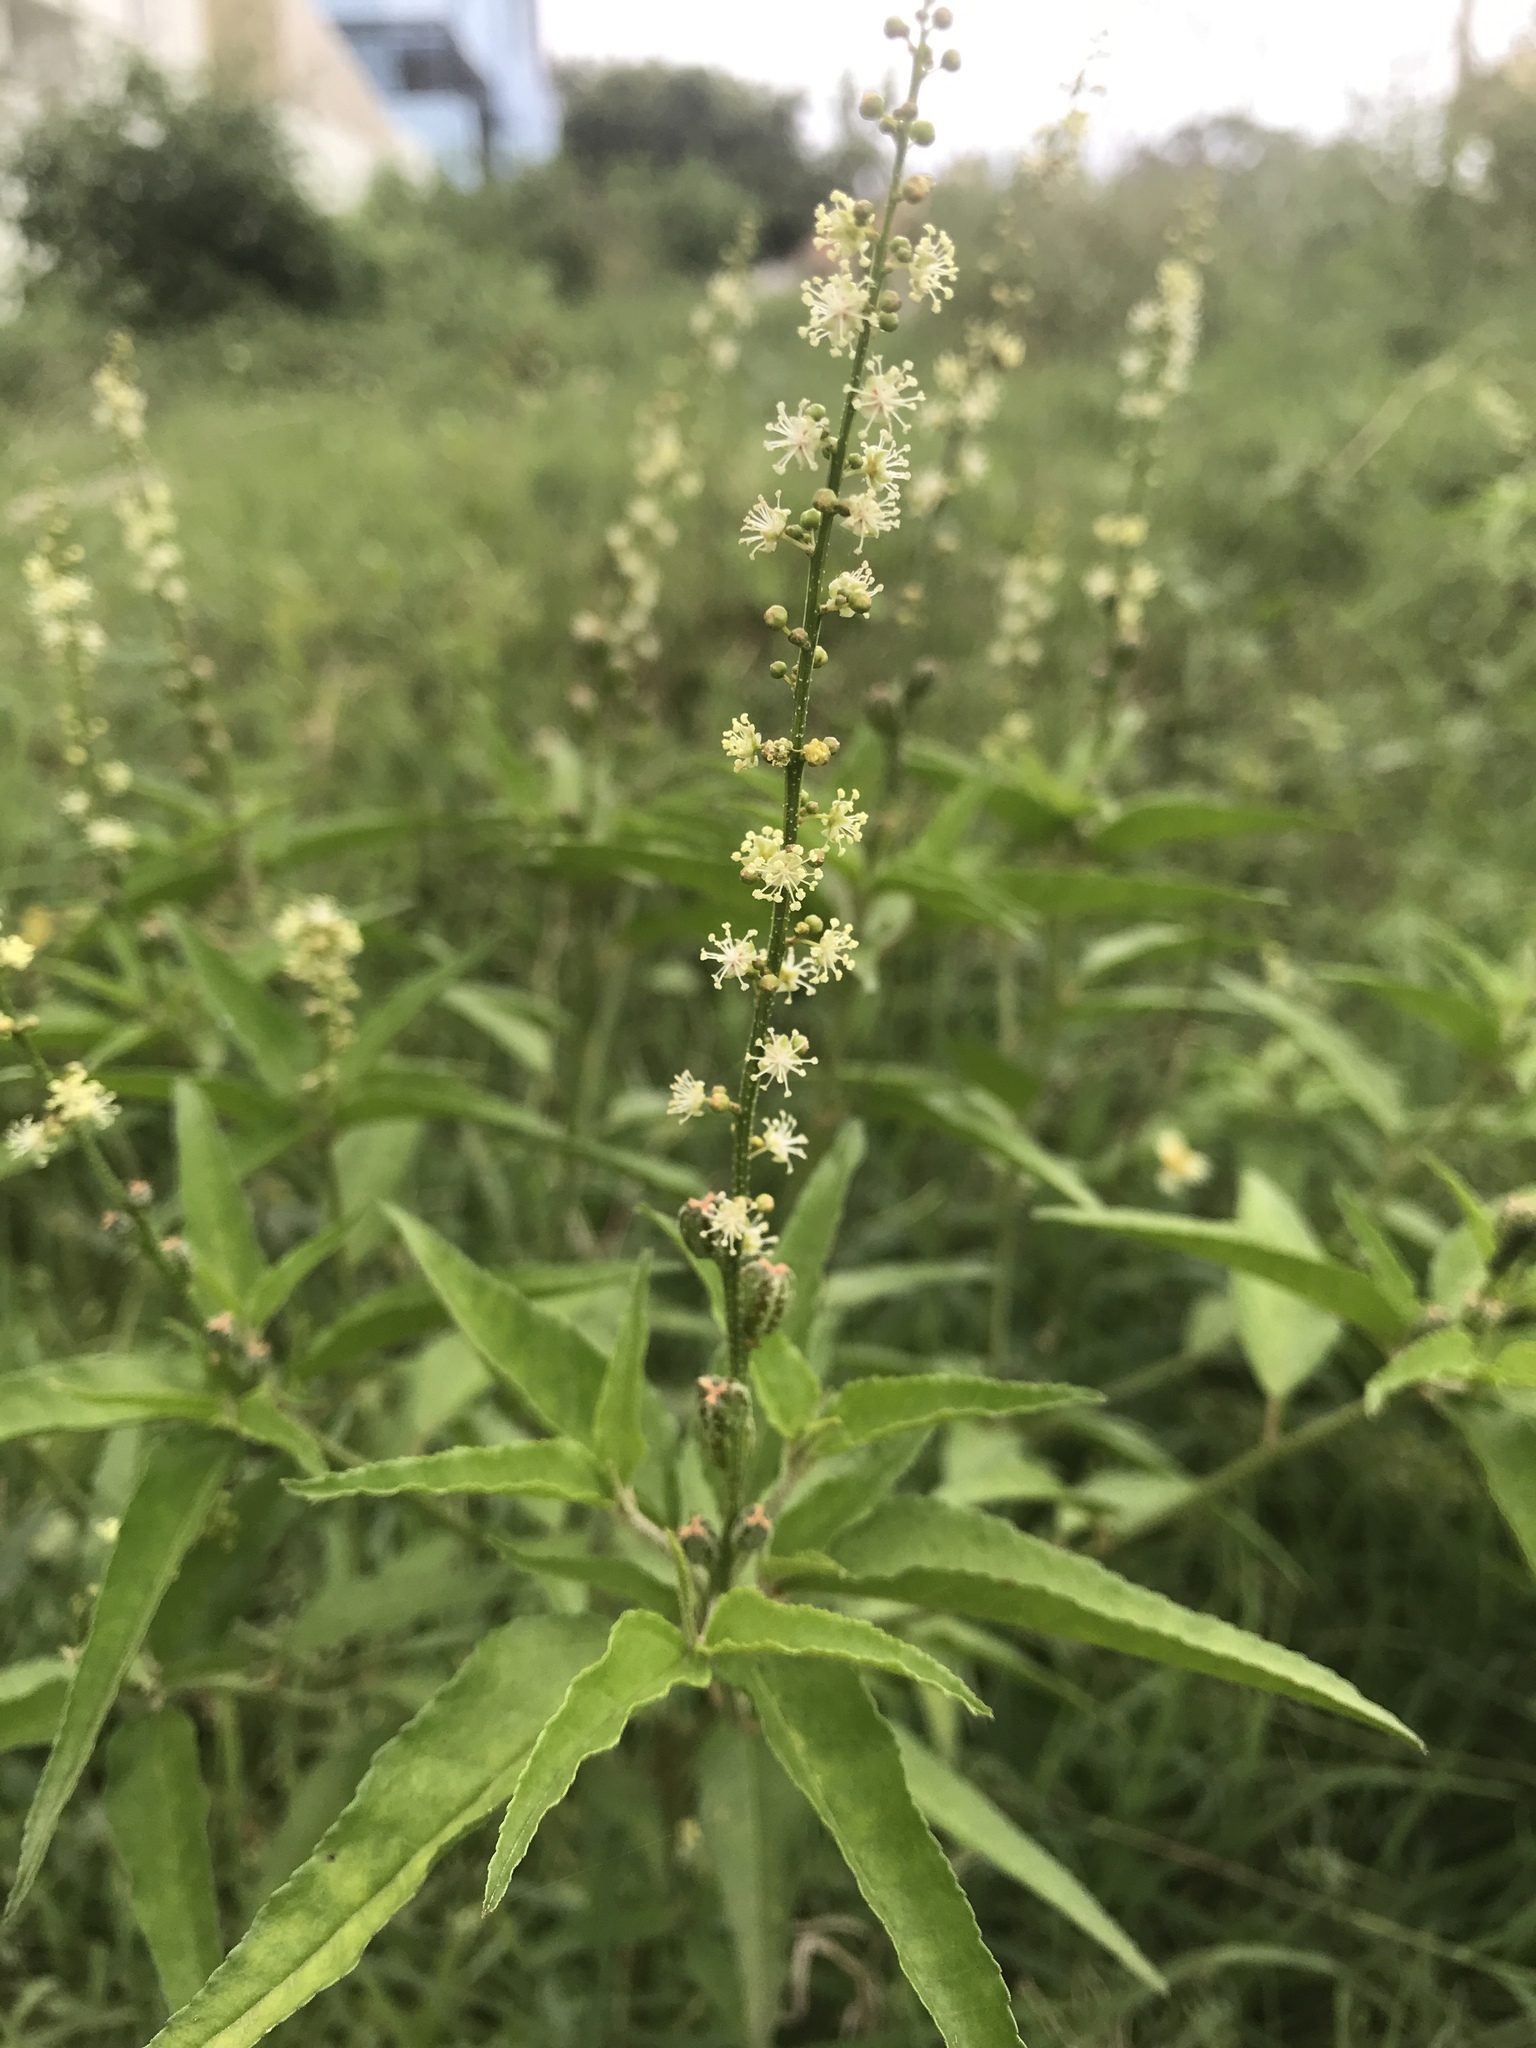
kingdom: Plantae
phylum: Tracheophyta
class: Magnoliopsida
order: Malpighiales
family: Euphorbiaceae
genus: Croton
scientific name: Croton bonplandianus
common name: Bonpland's croton
